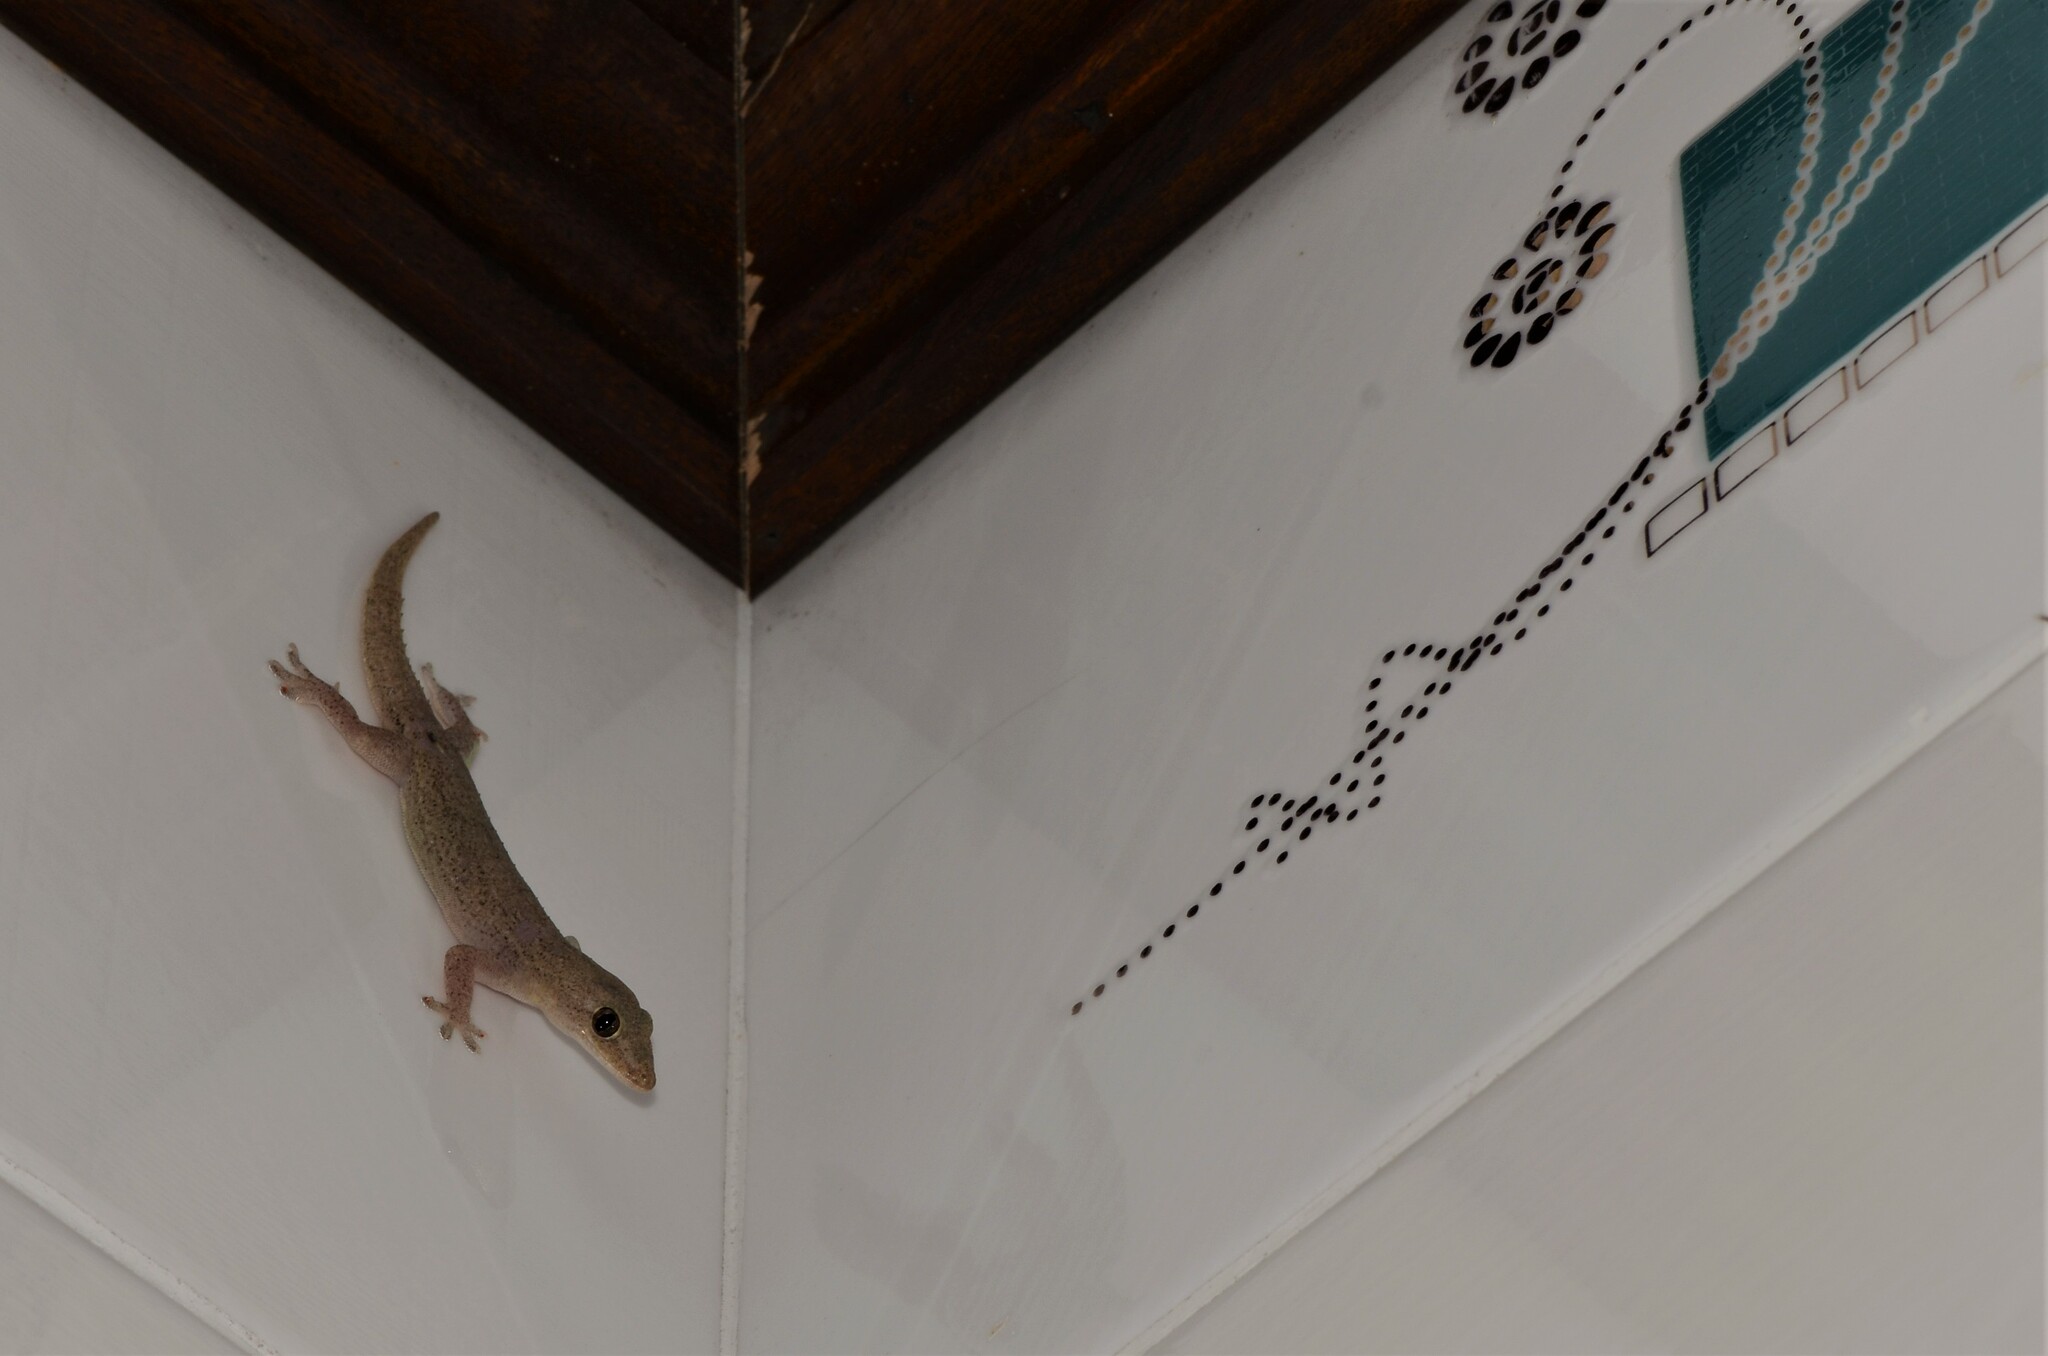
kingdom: Animalia
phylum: Chordata
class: Squamata
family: Gekkonidae
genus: Hemidactylus
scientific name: Hemidactylus frenatus
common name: Common house gecko
